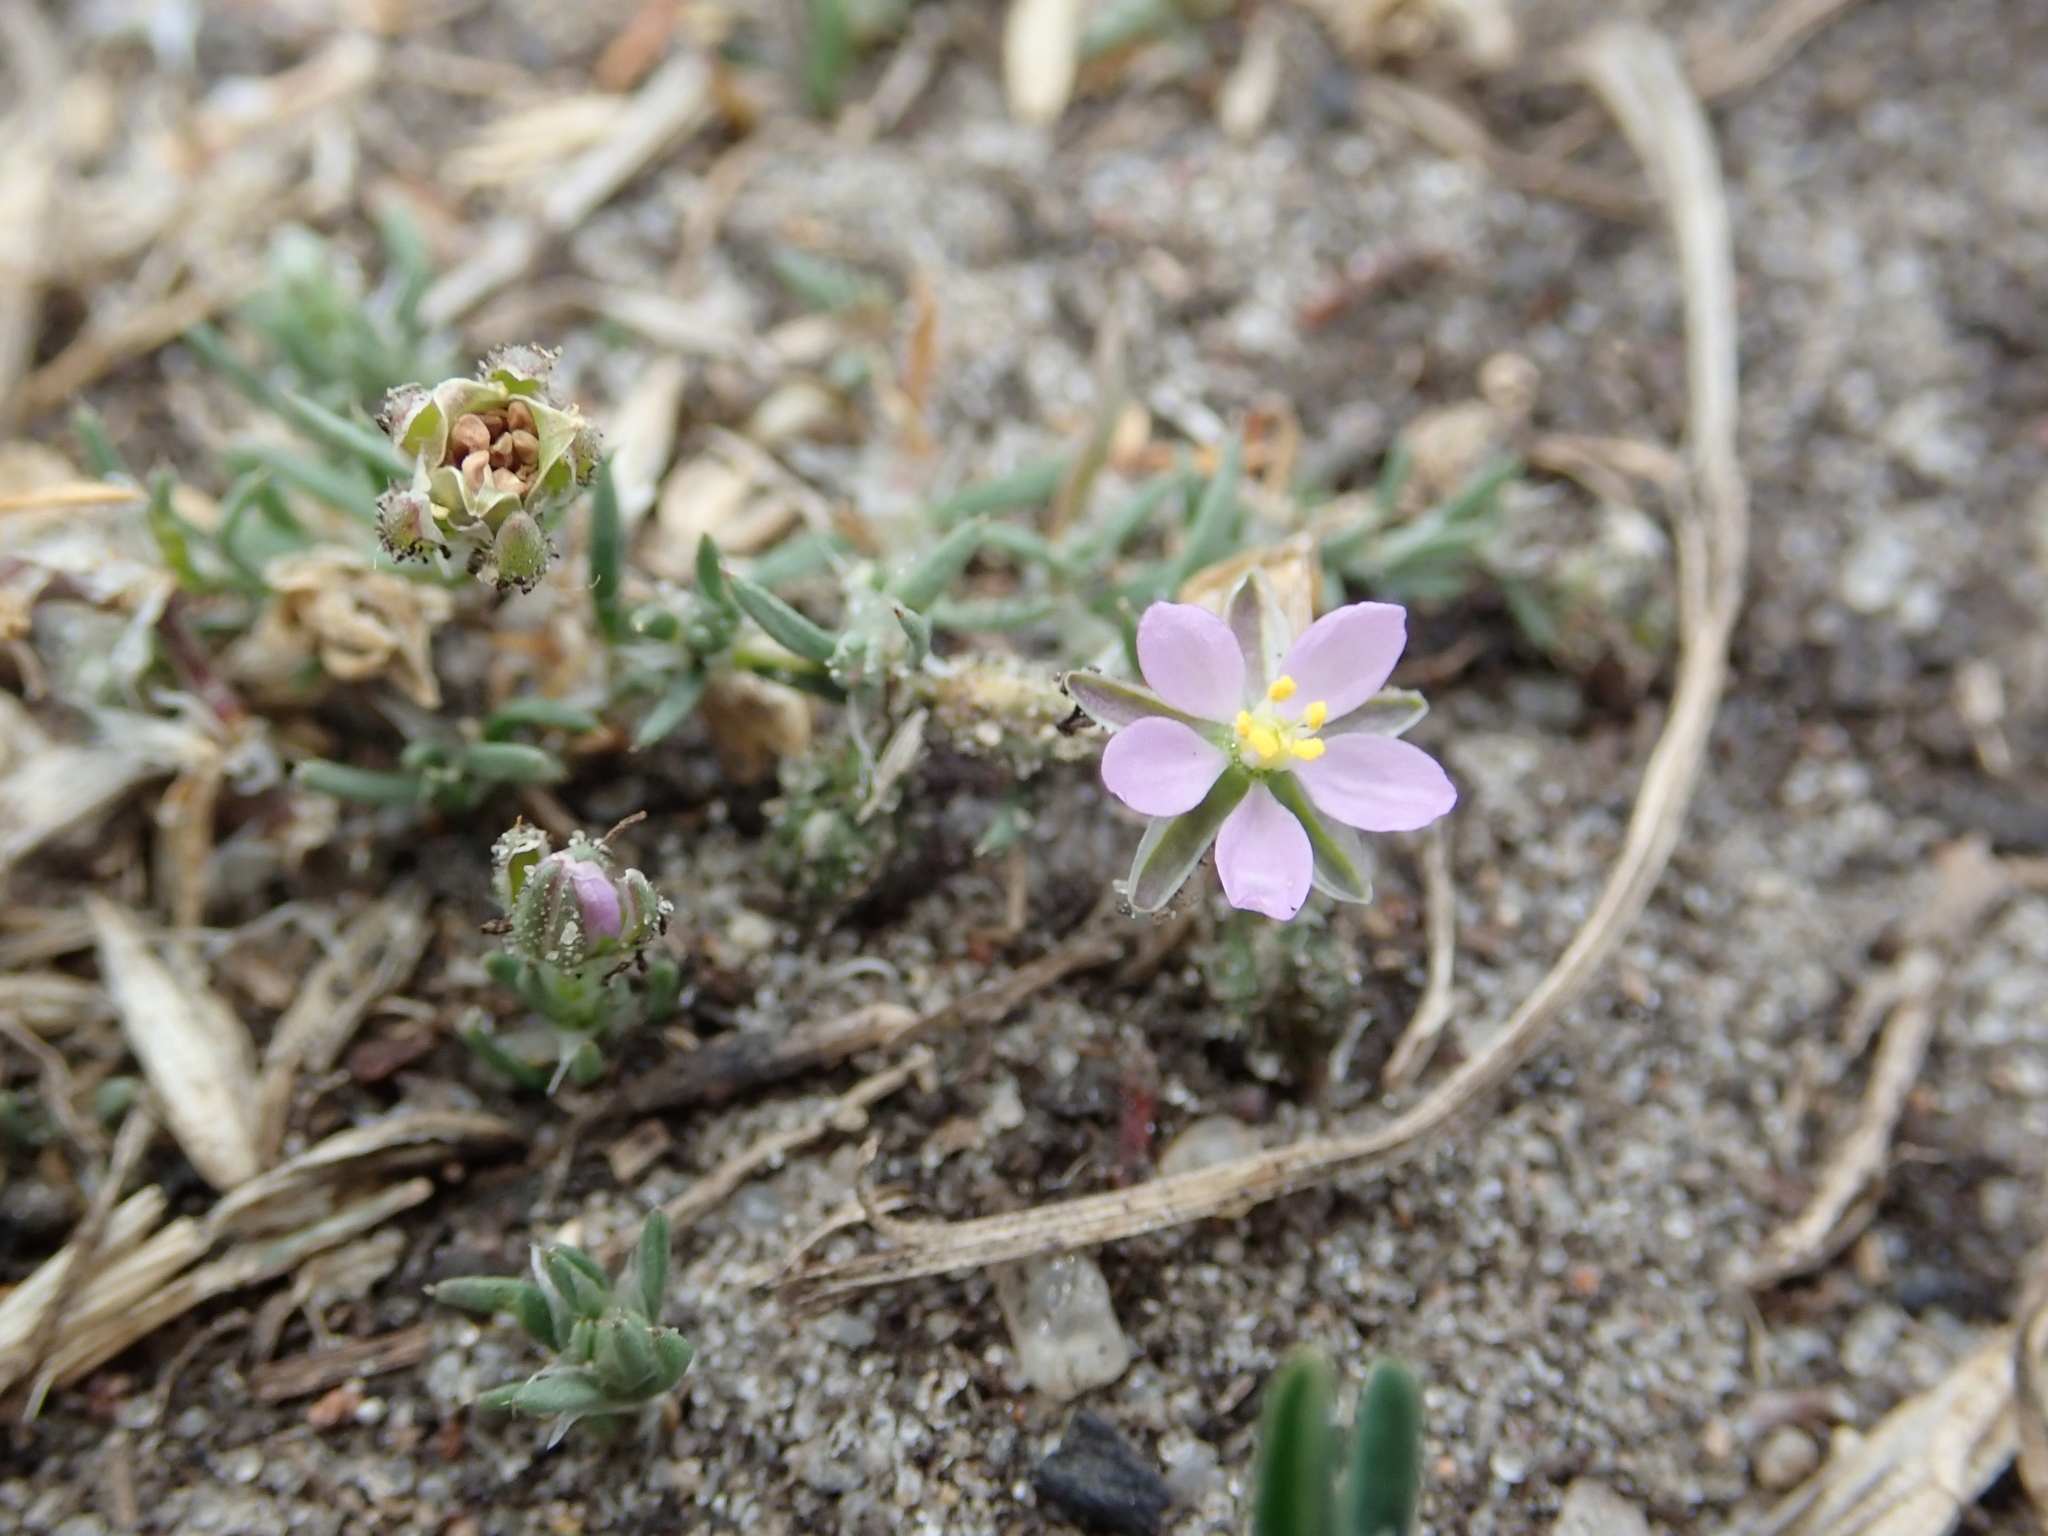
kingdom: Plantae
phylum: Tracheophyta
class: Magnoliopsida
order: Caryophyllales
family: Caryophyllaceae
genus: Spergularia
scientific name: Spergularia rubra
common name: Red sand-spurrey
